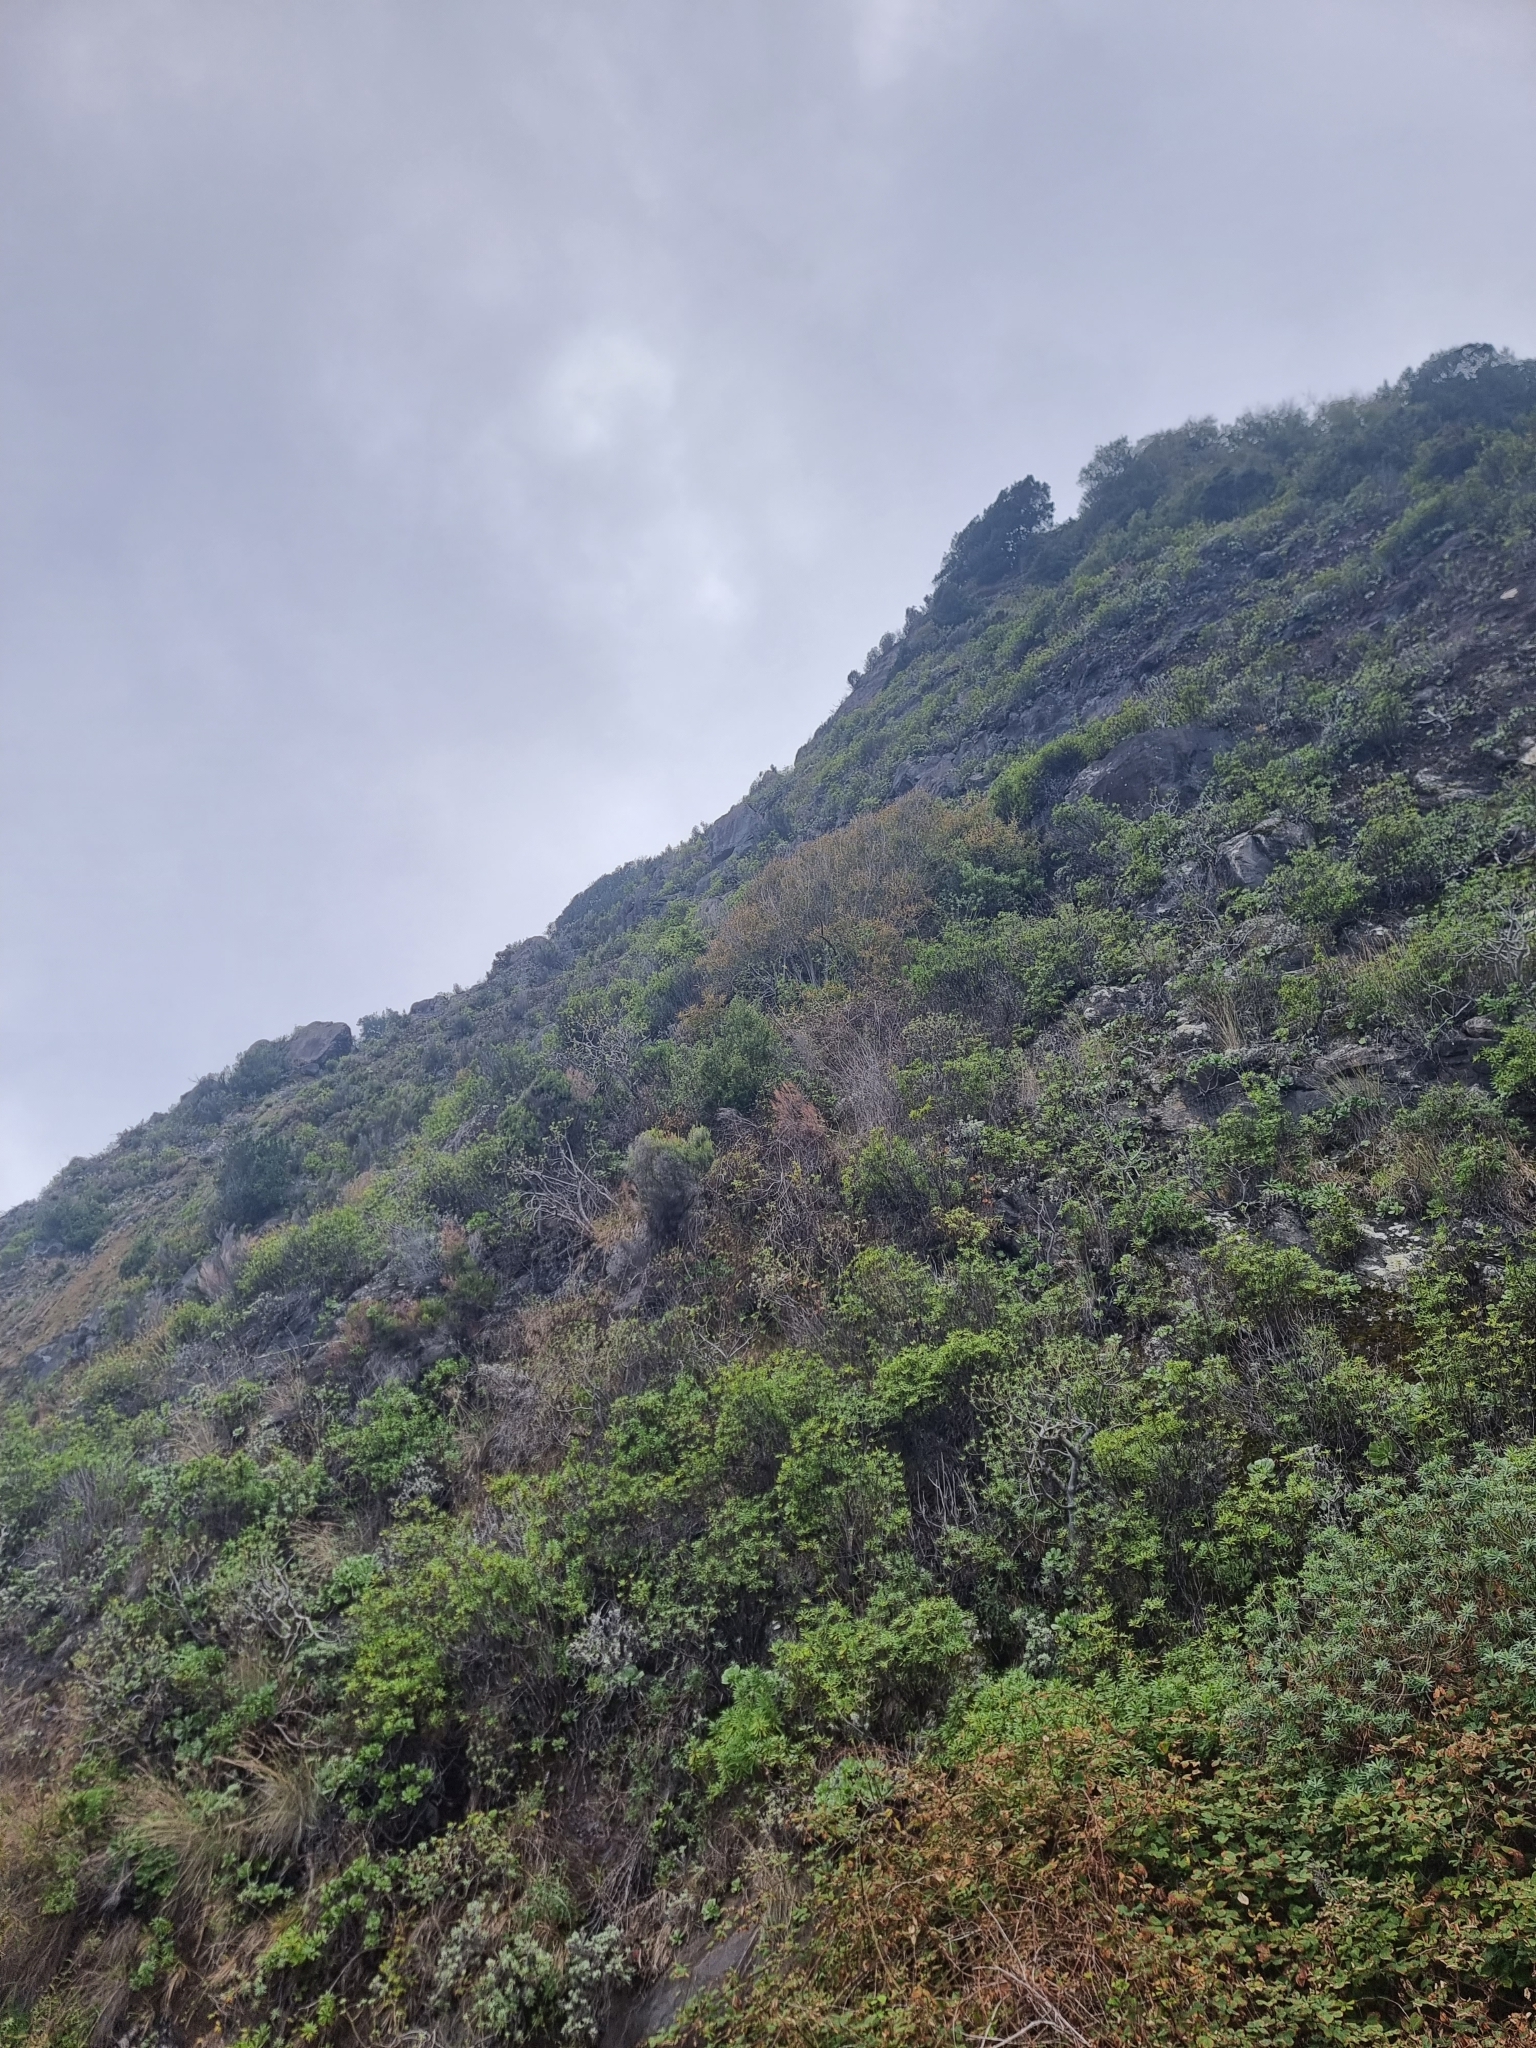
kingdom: Plantae
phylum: Tracheophyta
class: Magnoliopsida
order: Malpighiales
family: Salicaceae
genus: Salix
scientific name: Salix canariensis
